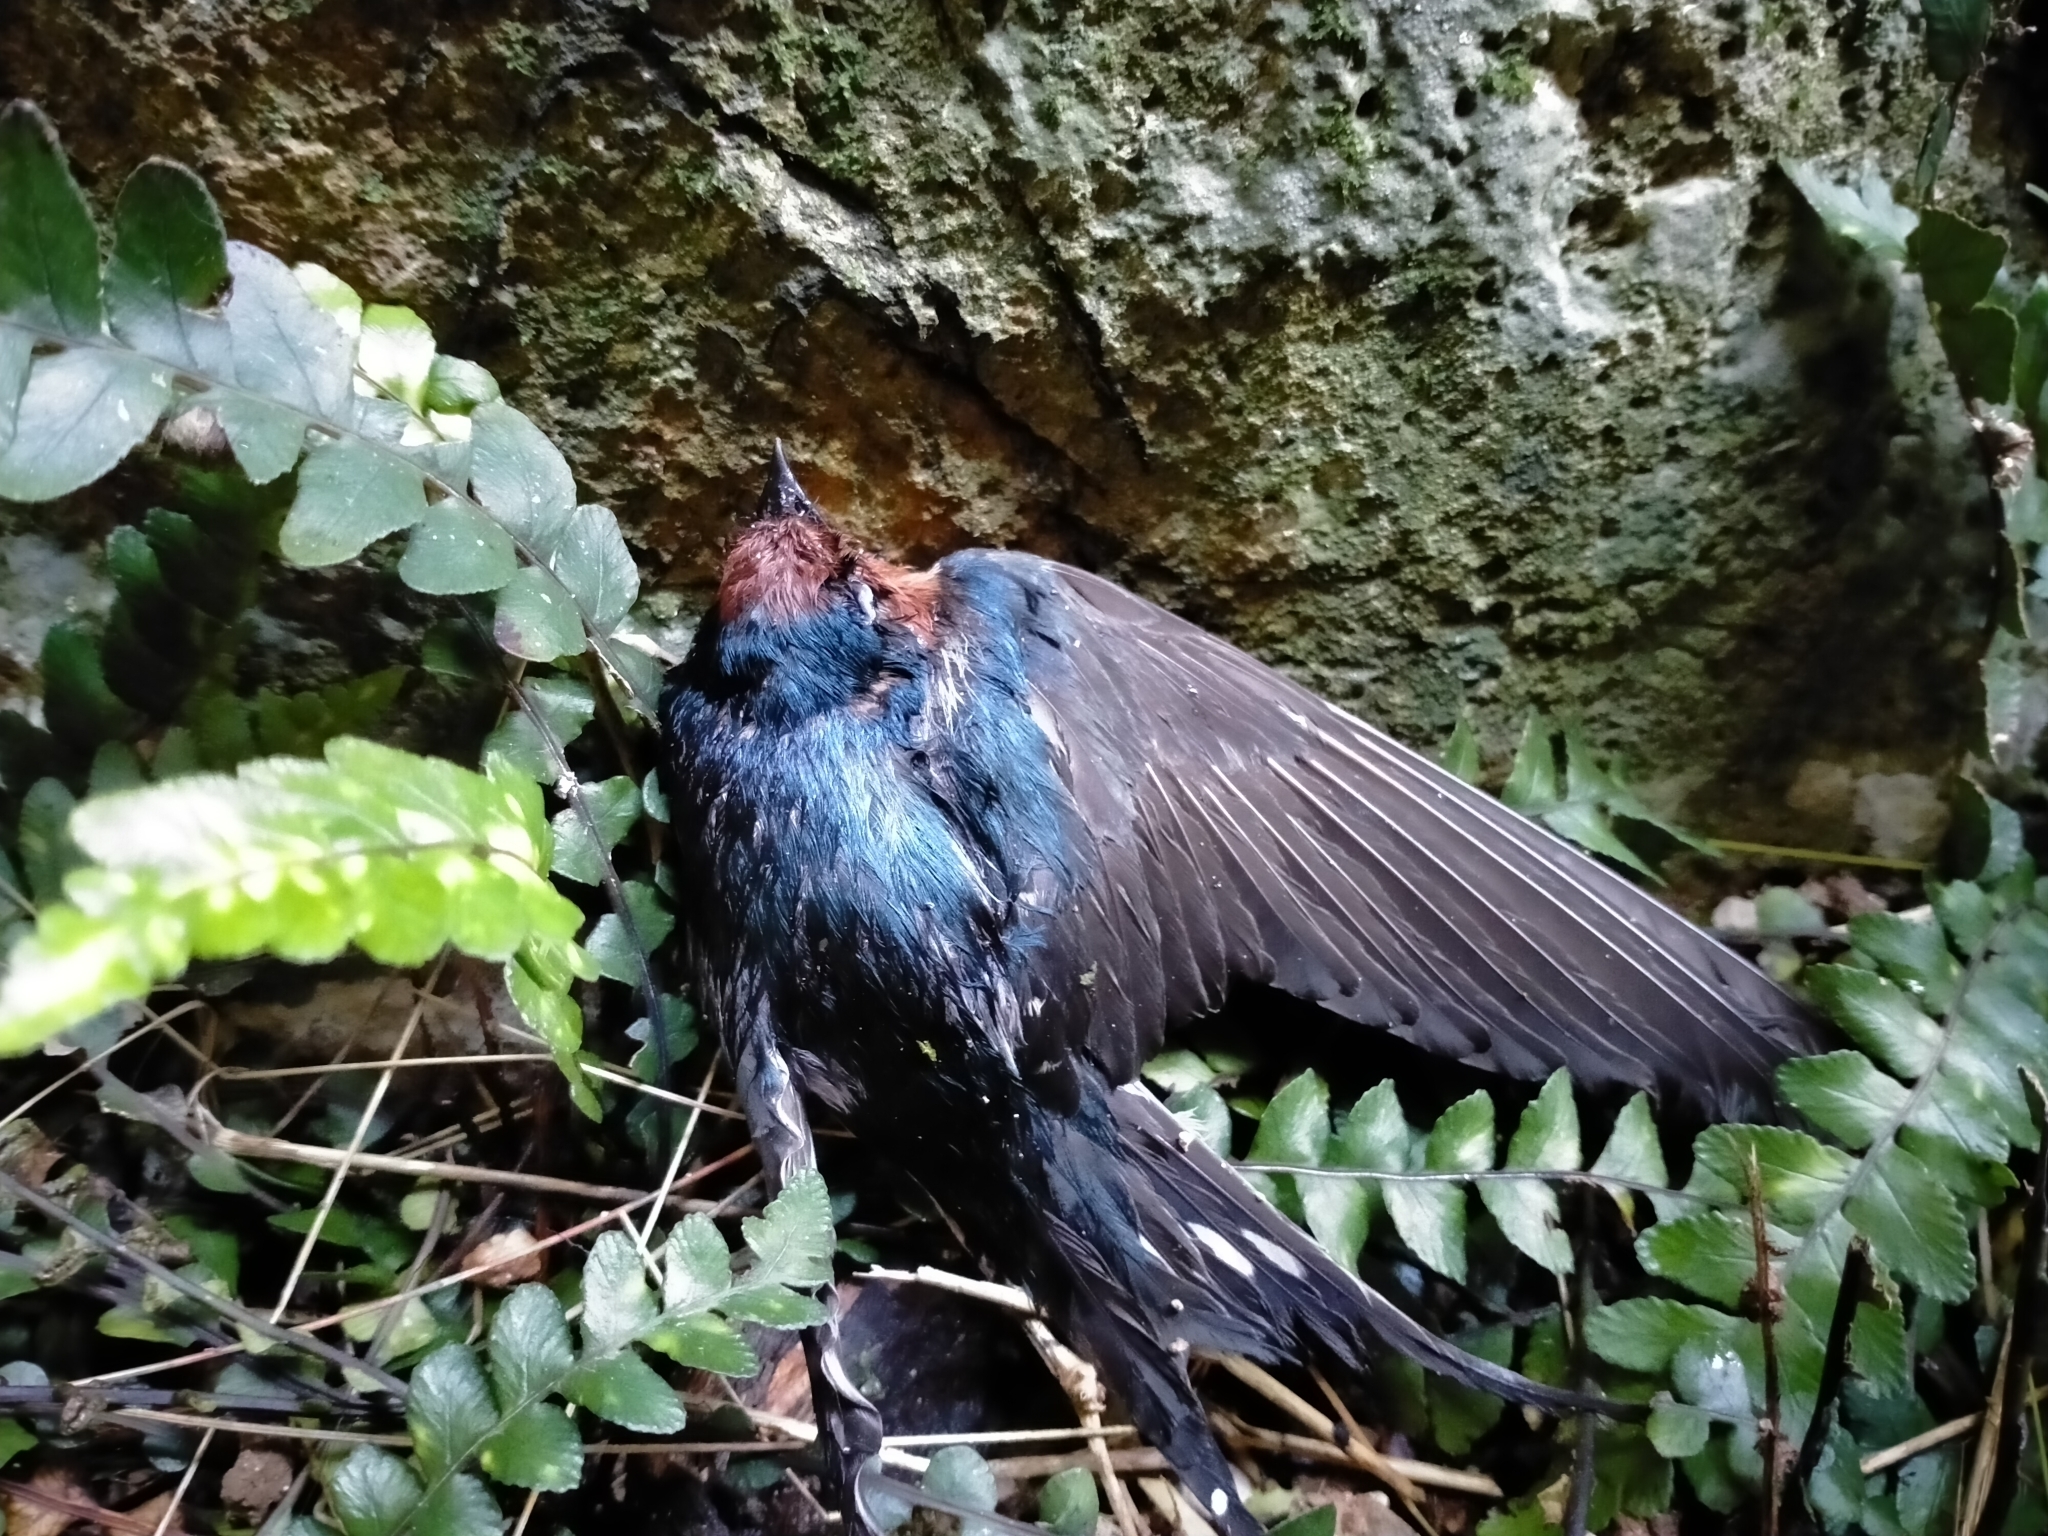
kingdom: Animalia
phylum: Chordata
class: Aves
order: Passeriformes
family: Hirundinidae
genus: Hirundo
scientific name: Hirundo neoxena
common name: Welcome swallow
